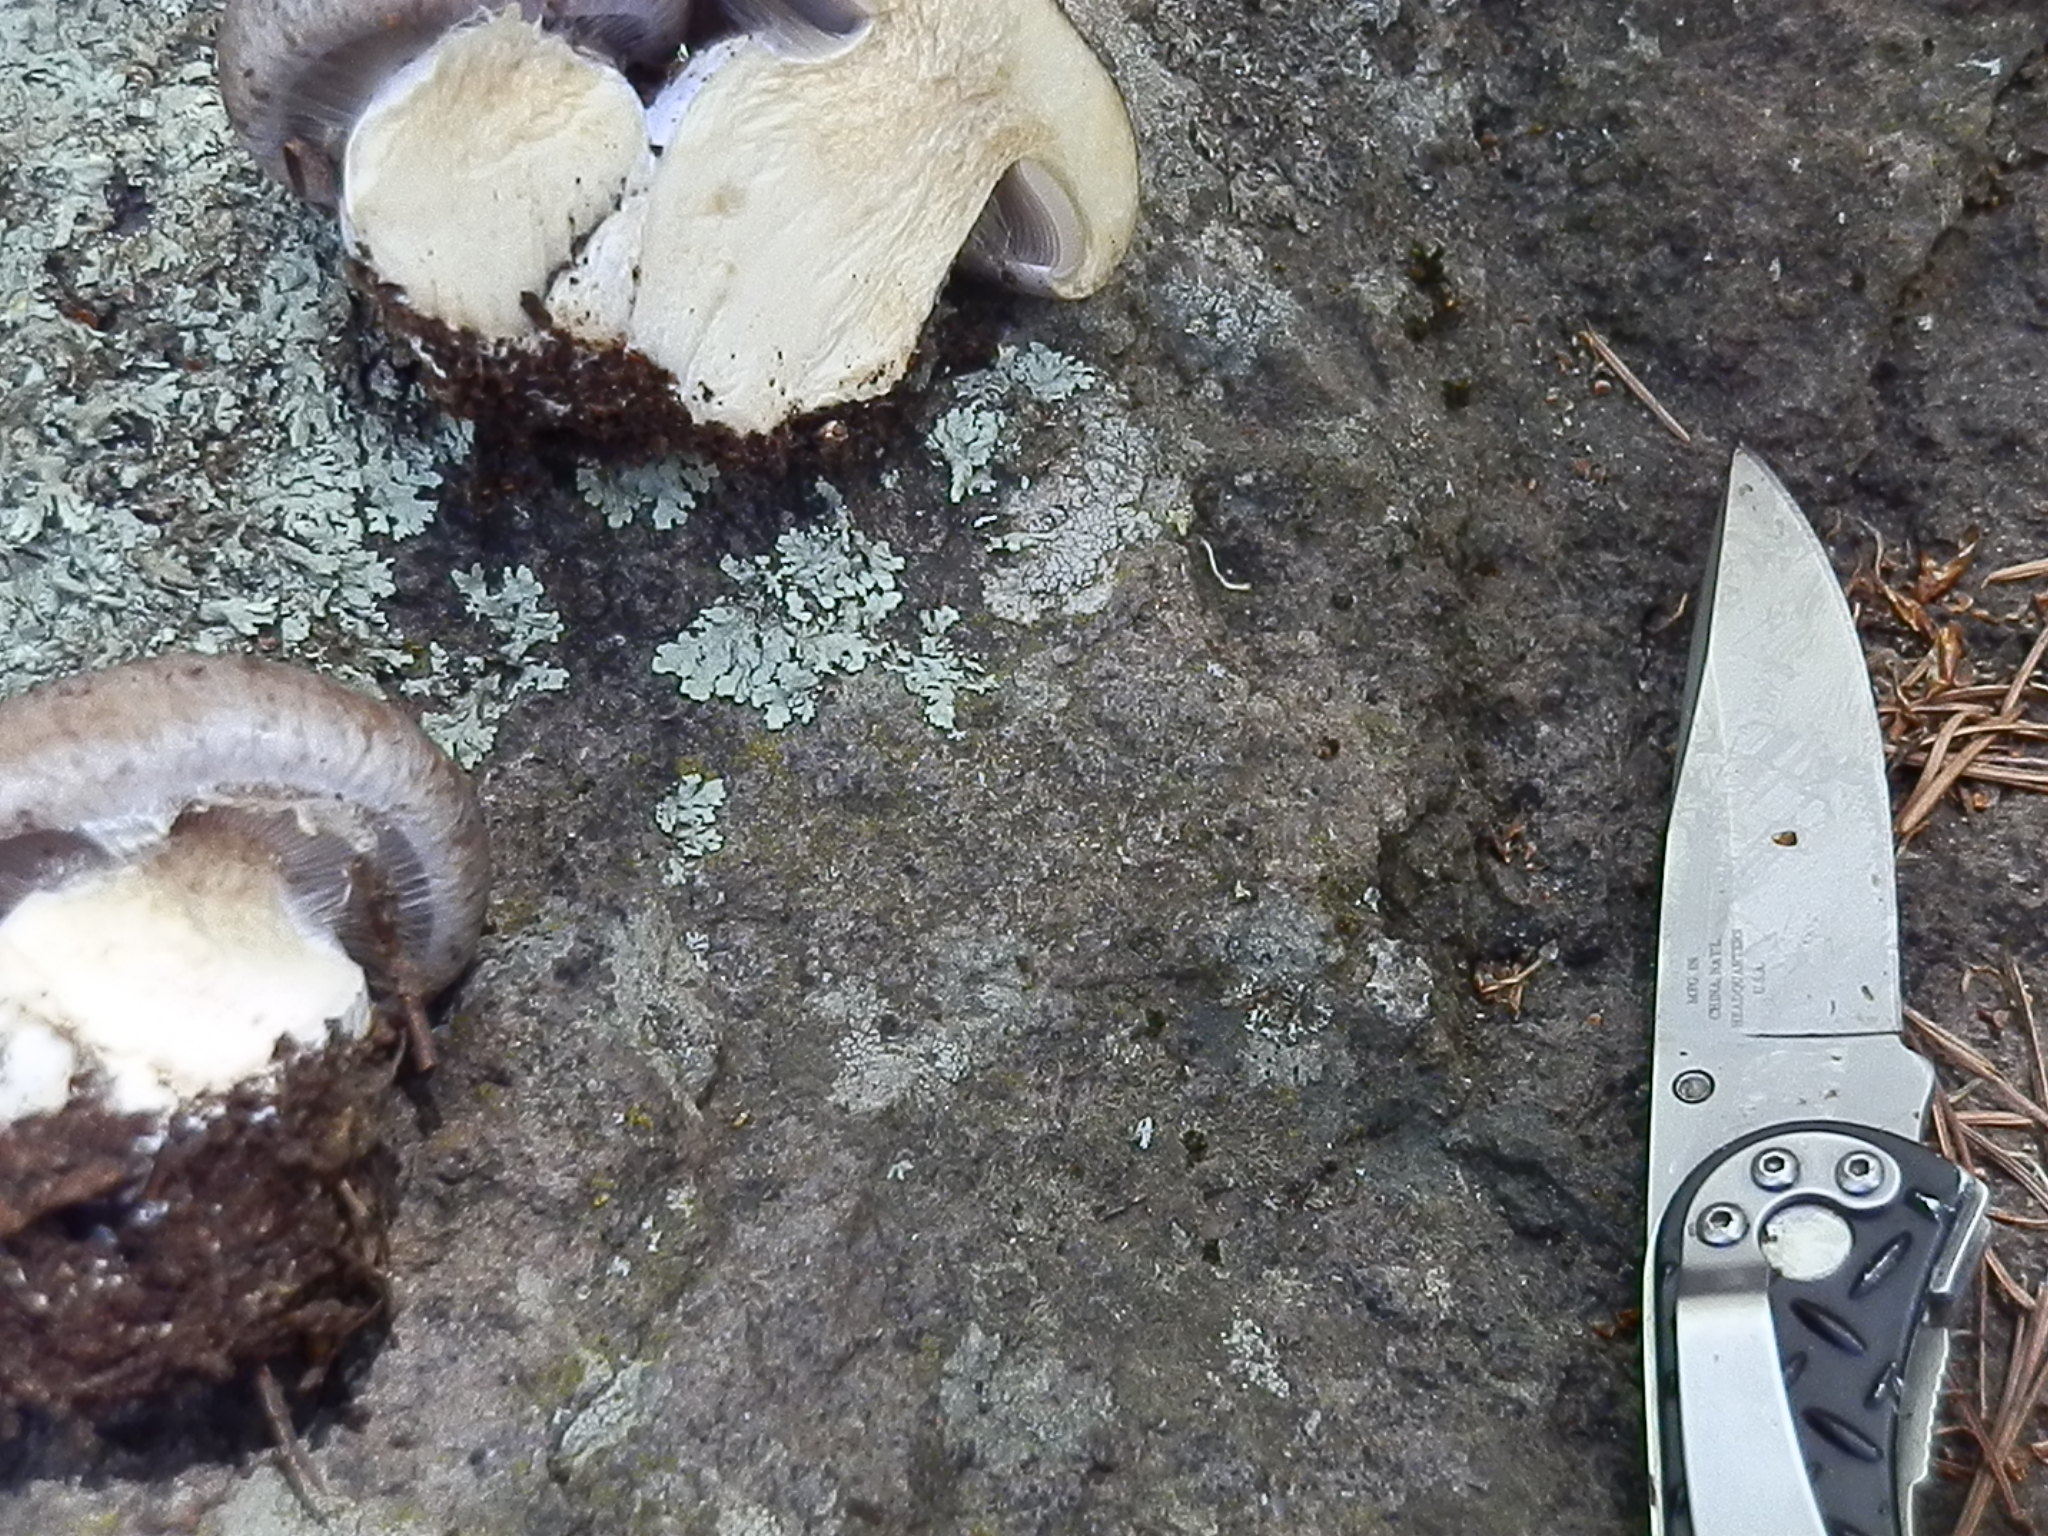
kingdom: Fungi
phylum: Basidiomycota
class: Agaricomycetes
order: Agaricales
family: Cortinariaceae
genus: Phlegmacium
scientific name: Phlegmacium subolivascens
